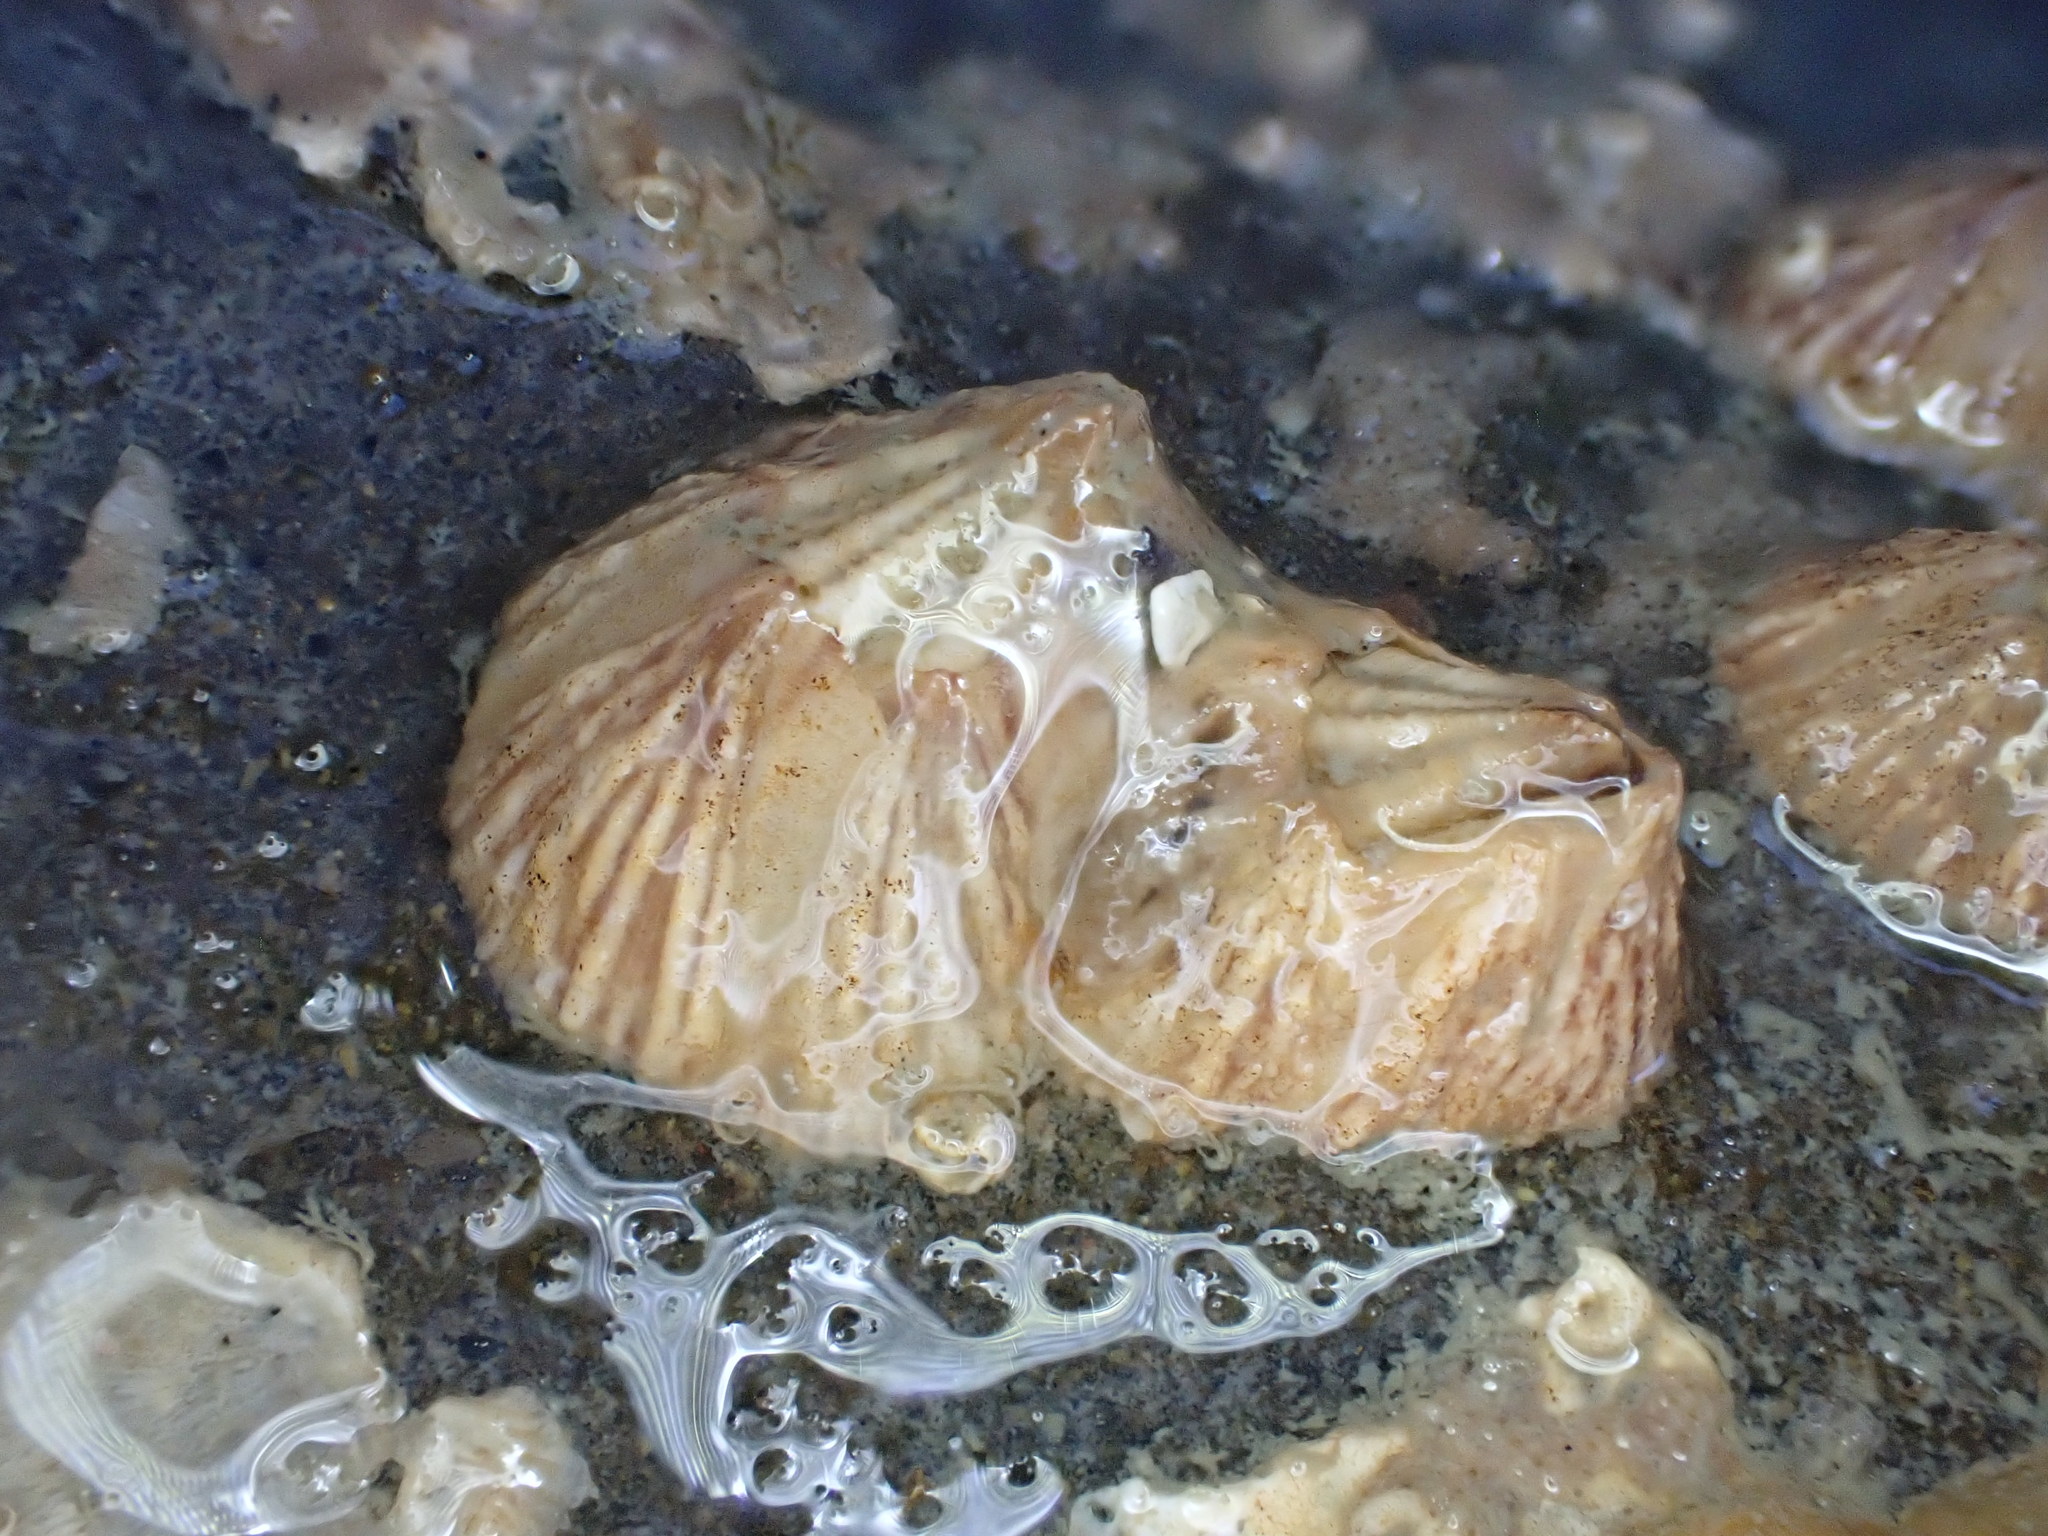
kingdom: Animalia
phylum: Arthropoda
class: Maxillopoda
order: Sessilia
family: Balanidae
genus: Balanus
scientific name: Balanus trigonus
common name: Triangle barnacle
